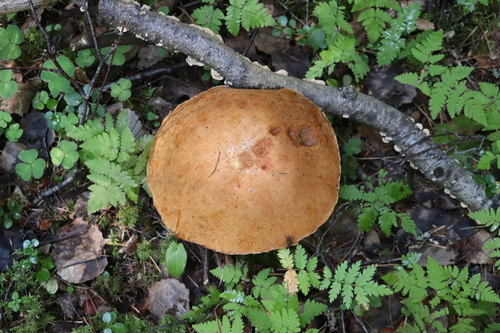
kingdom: Fungi
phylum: Basidiomycota
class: Agaricomycetes
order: Boletales
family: Boletaceae
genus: Leccinum
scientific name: Leccinum versipelle
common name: Orange birch bolete
